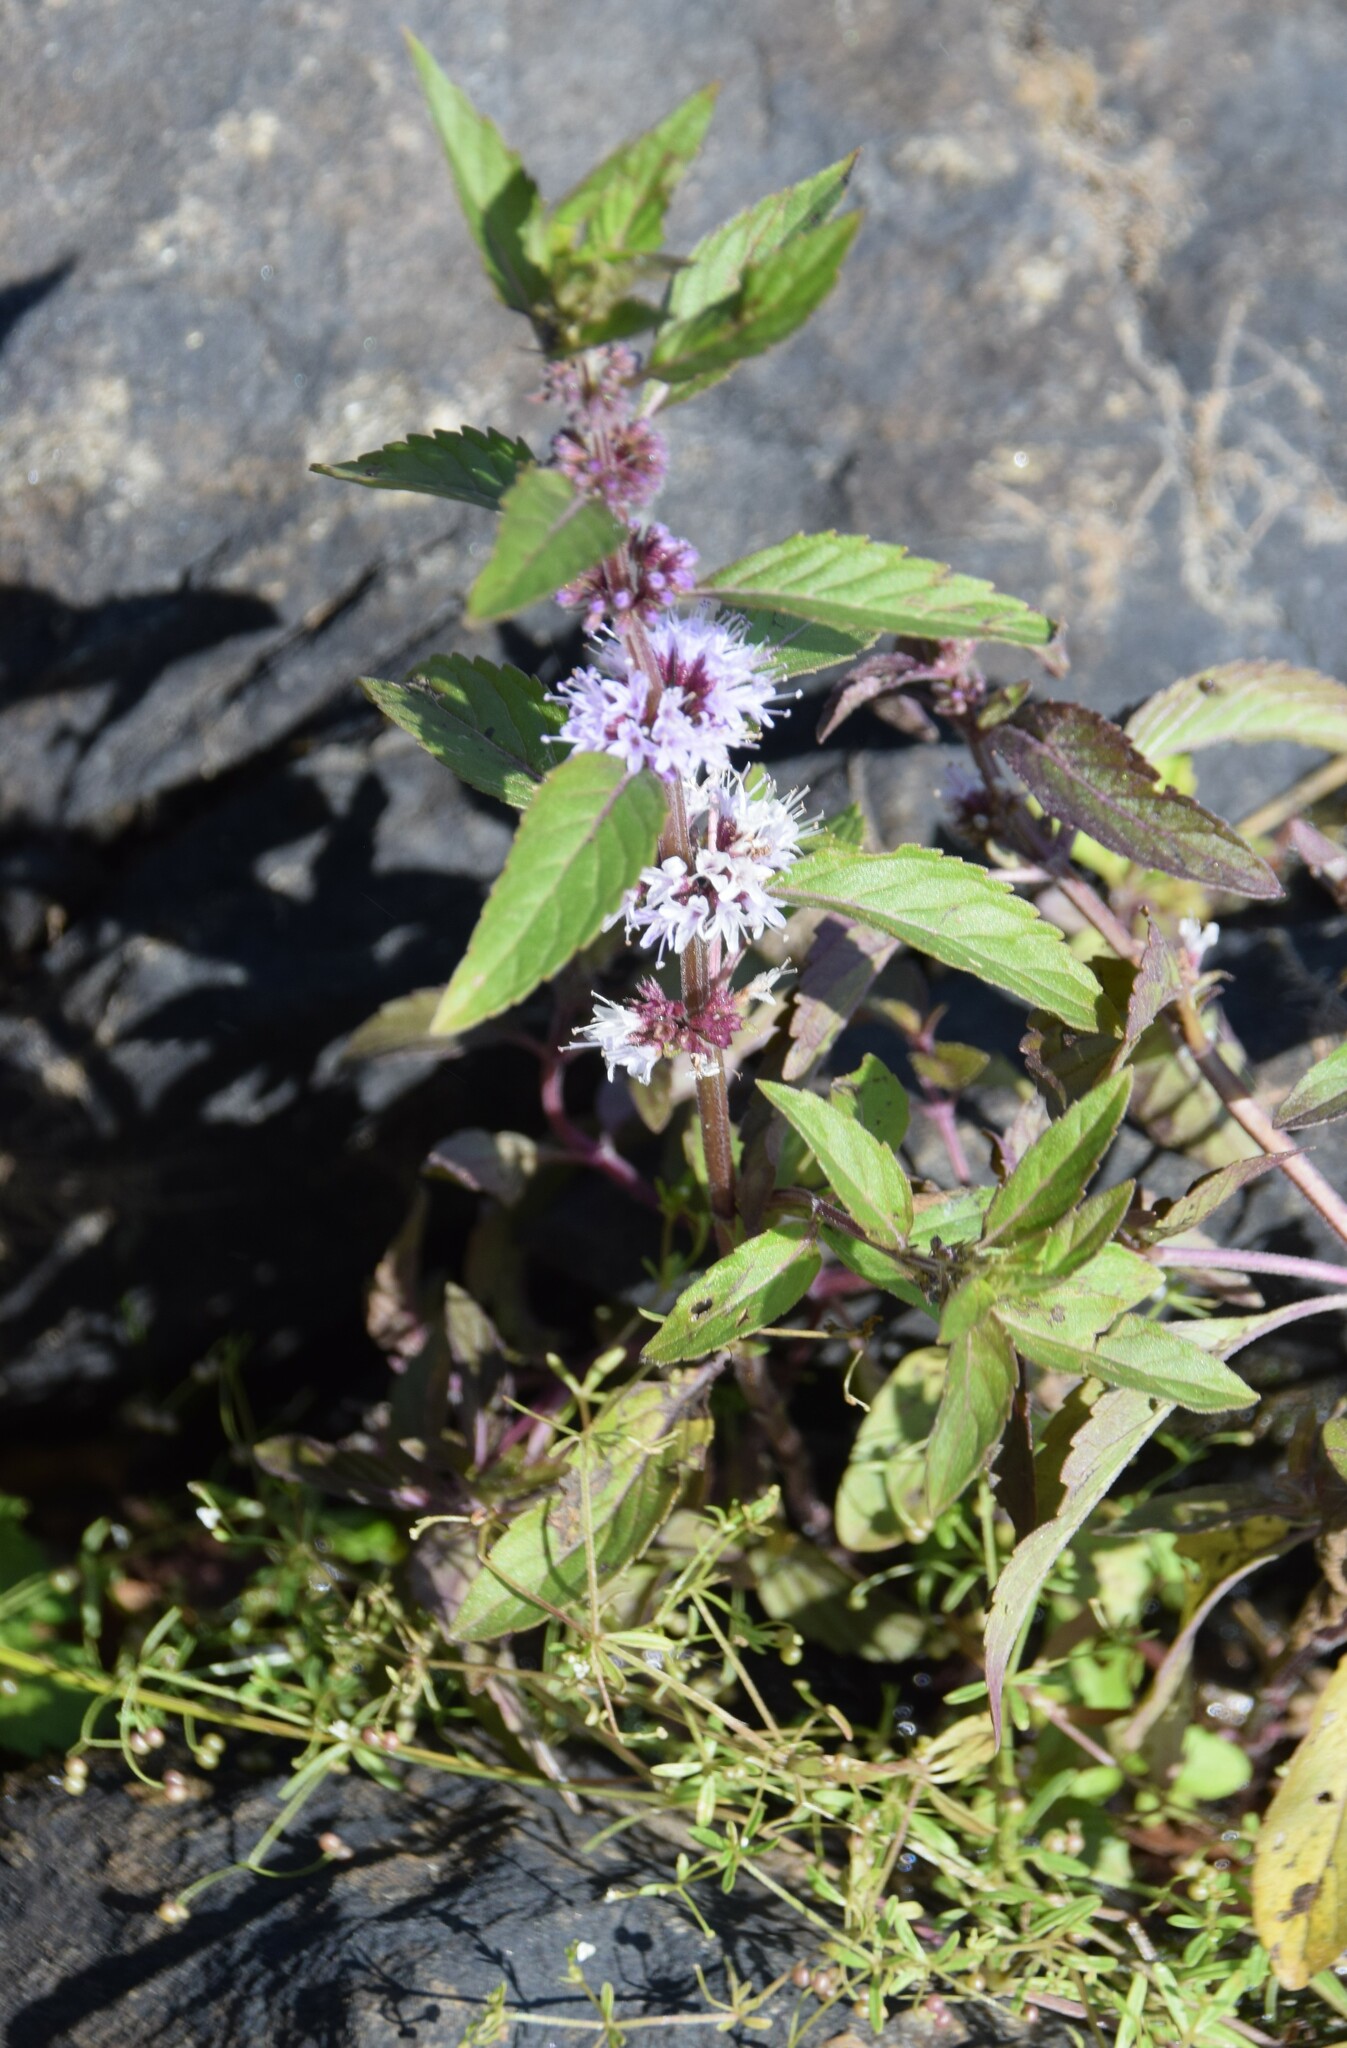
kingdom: Plantae
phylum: Tracheophyta
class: Magnoliopsida
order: Lamiales
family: Lamiaceae
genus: Mentha
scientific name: Mentha canadensis
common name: American corn mint
